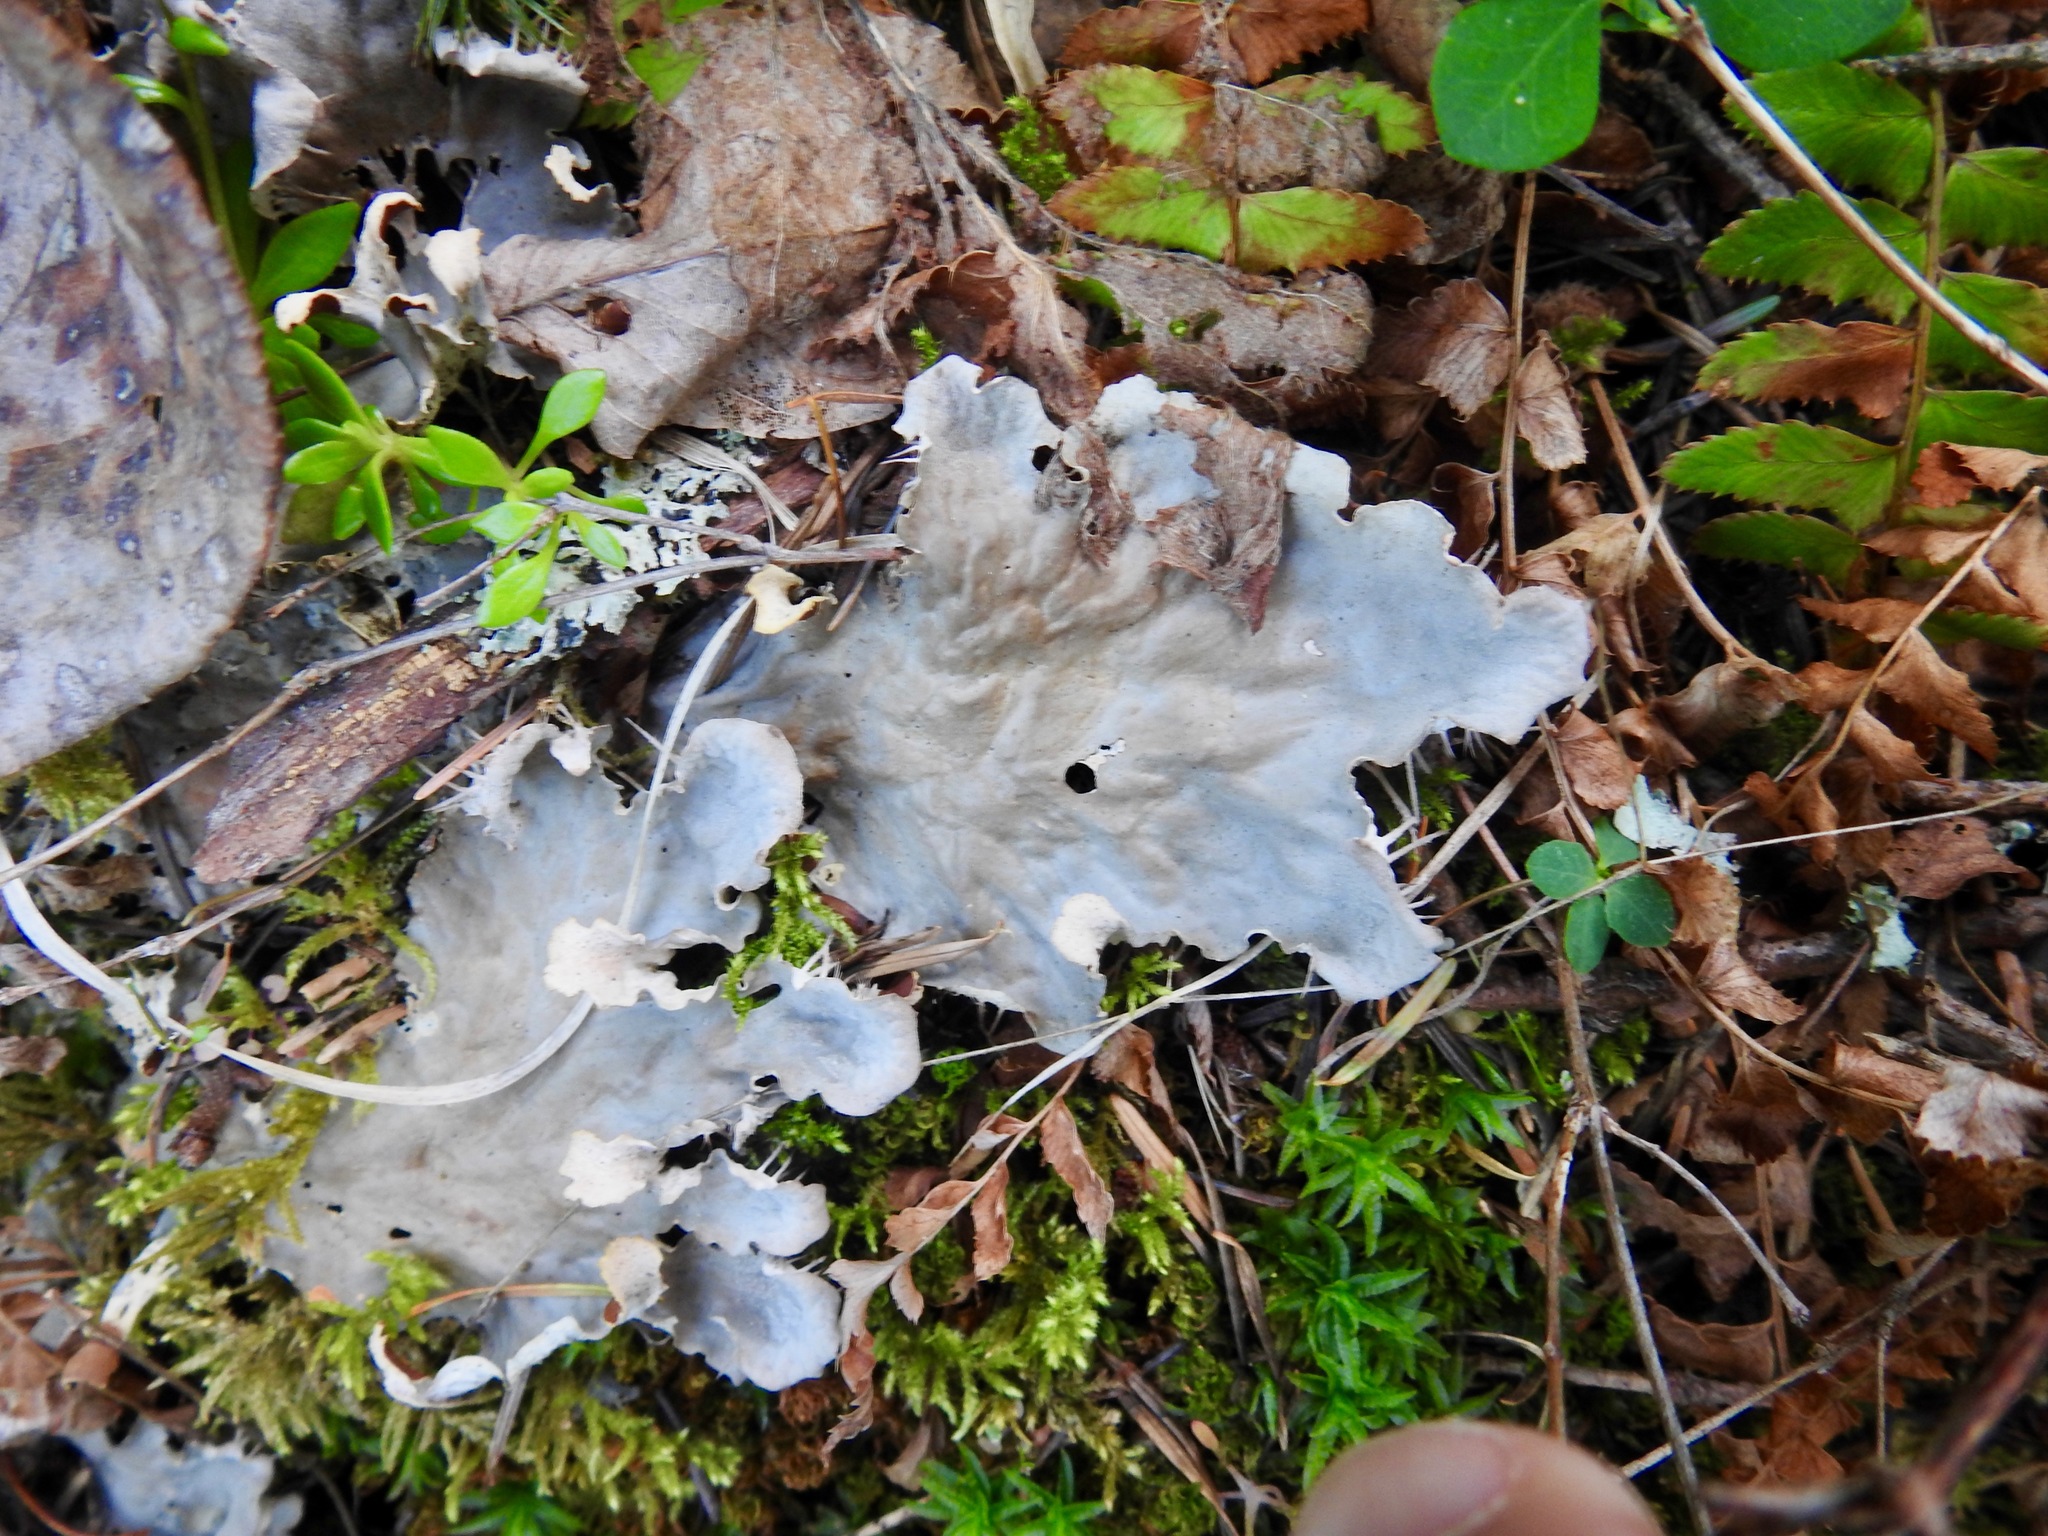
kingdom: Fungi
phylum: Ascomycota
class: Lecanoromycetes
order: Peltigerales
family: Peltigeraceae
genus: Peltigera
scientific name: Peltigera membranacea
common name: Membranous pelt lichen
